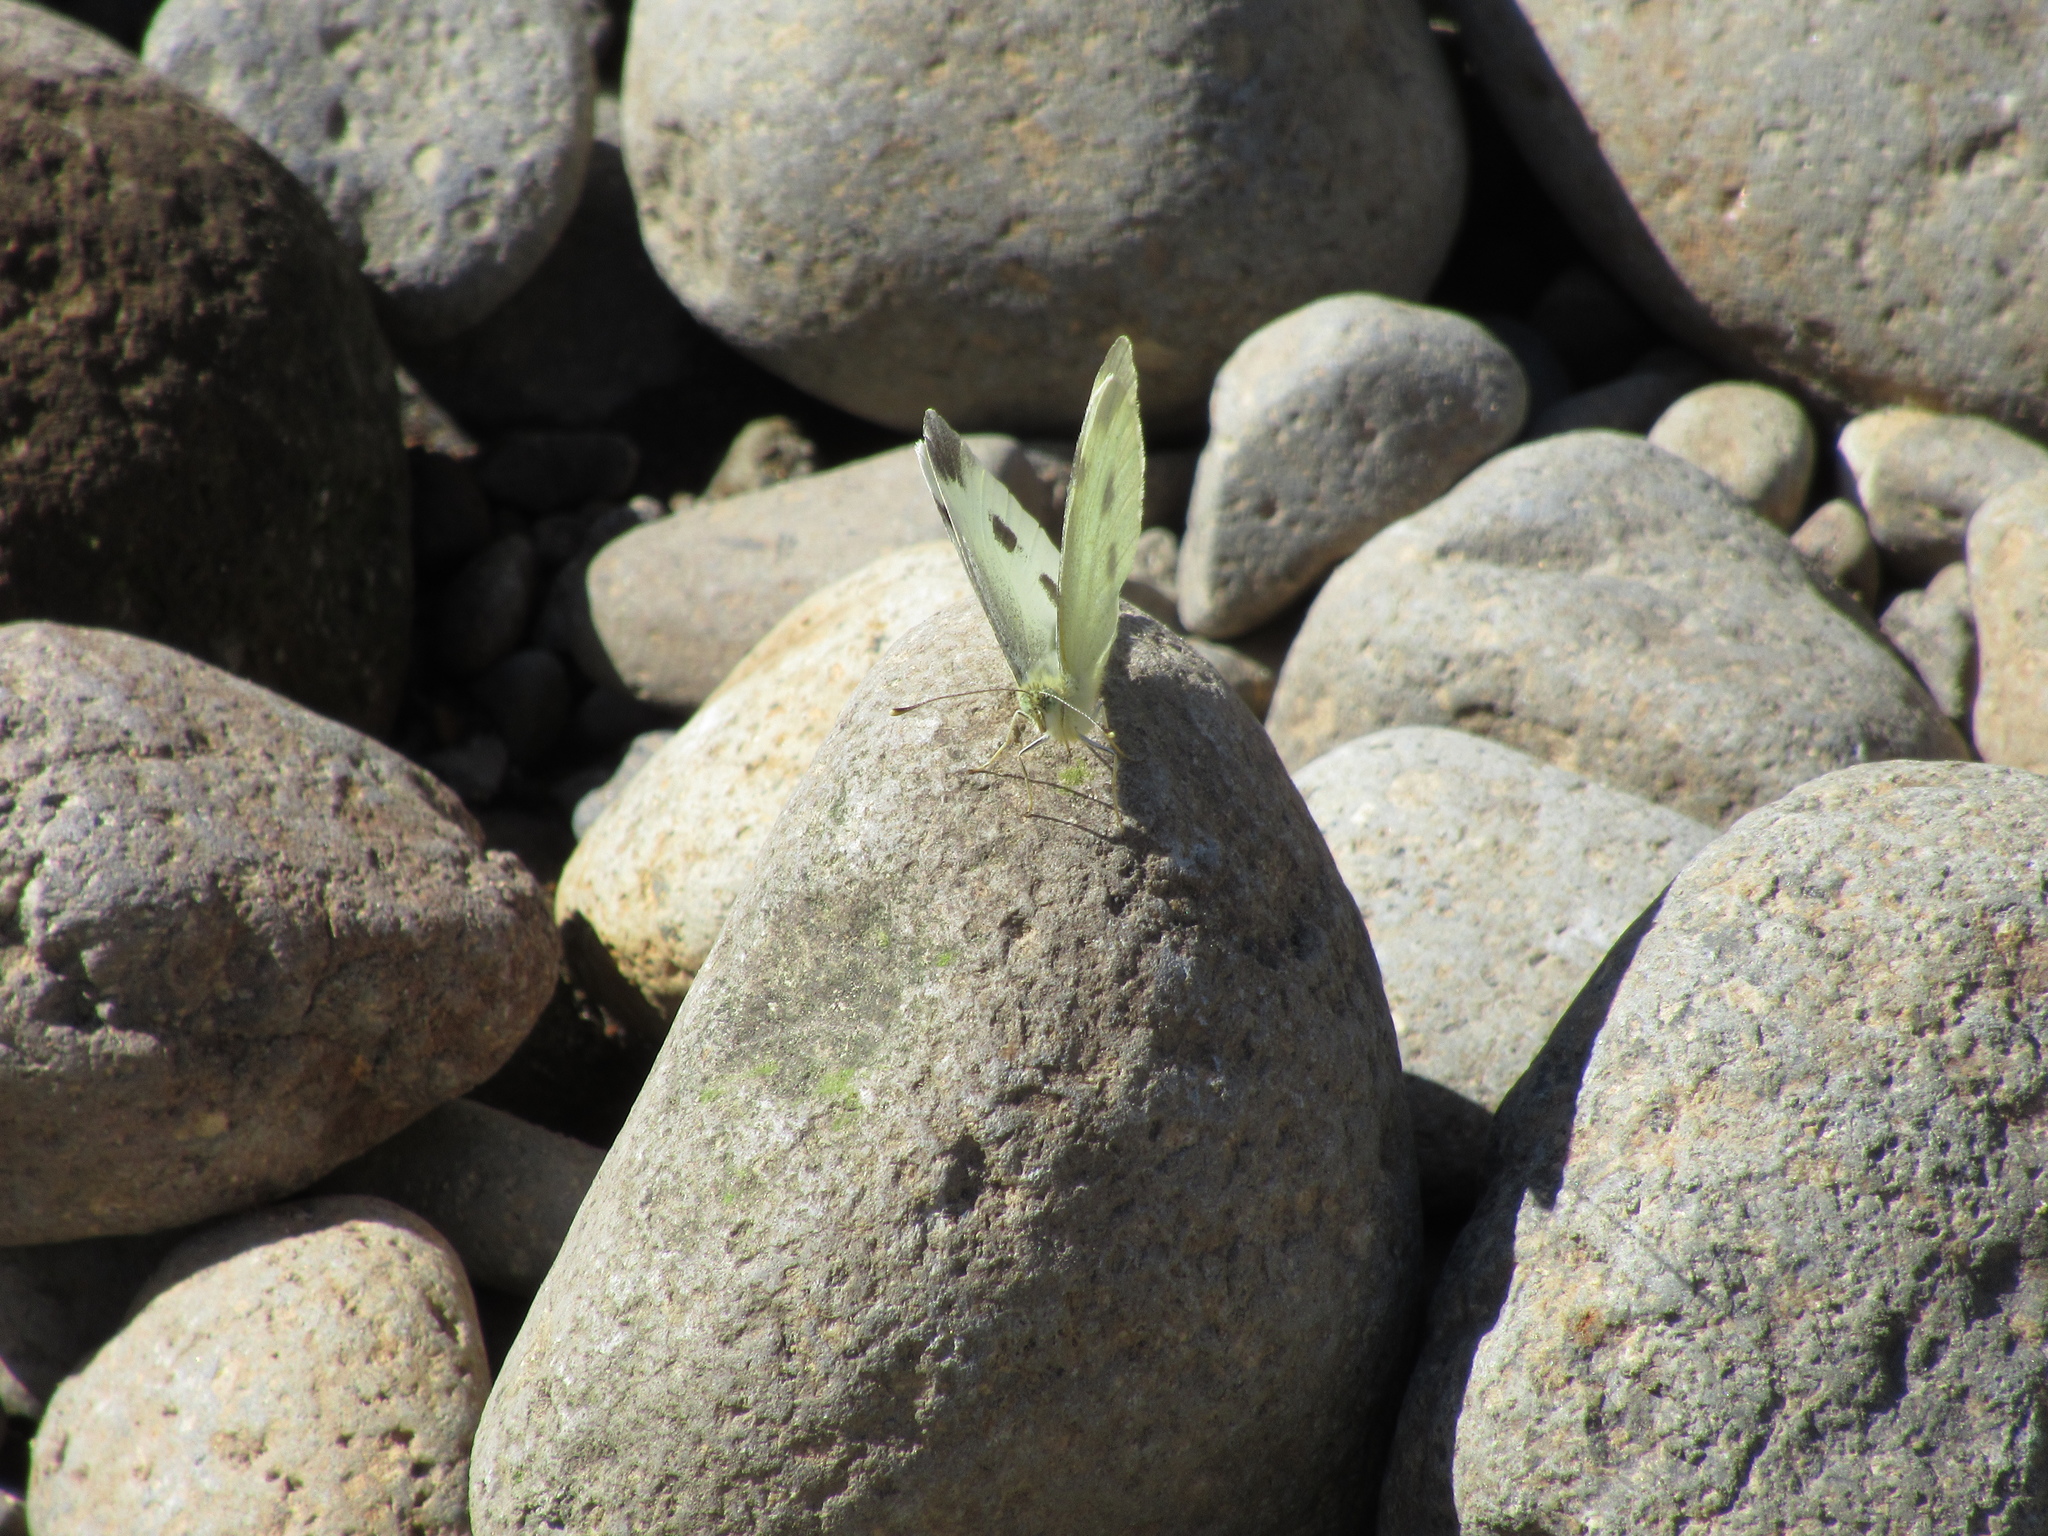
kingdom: Animalia
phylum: Arthropoda
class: Insecta
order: Lepidoptera
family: Pieridae
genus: Pieris
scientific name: Pieris rapae
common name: Small white
